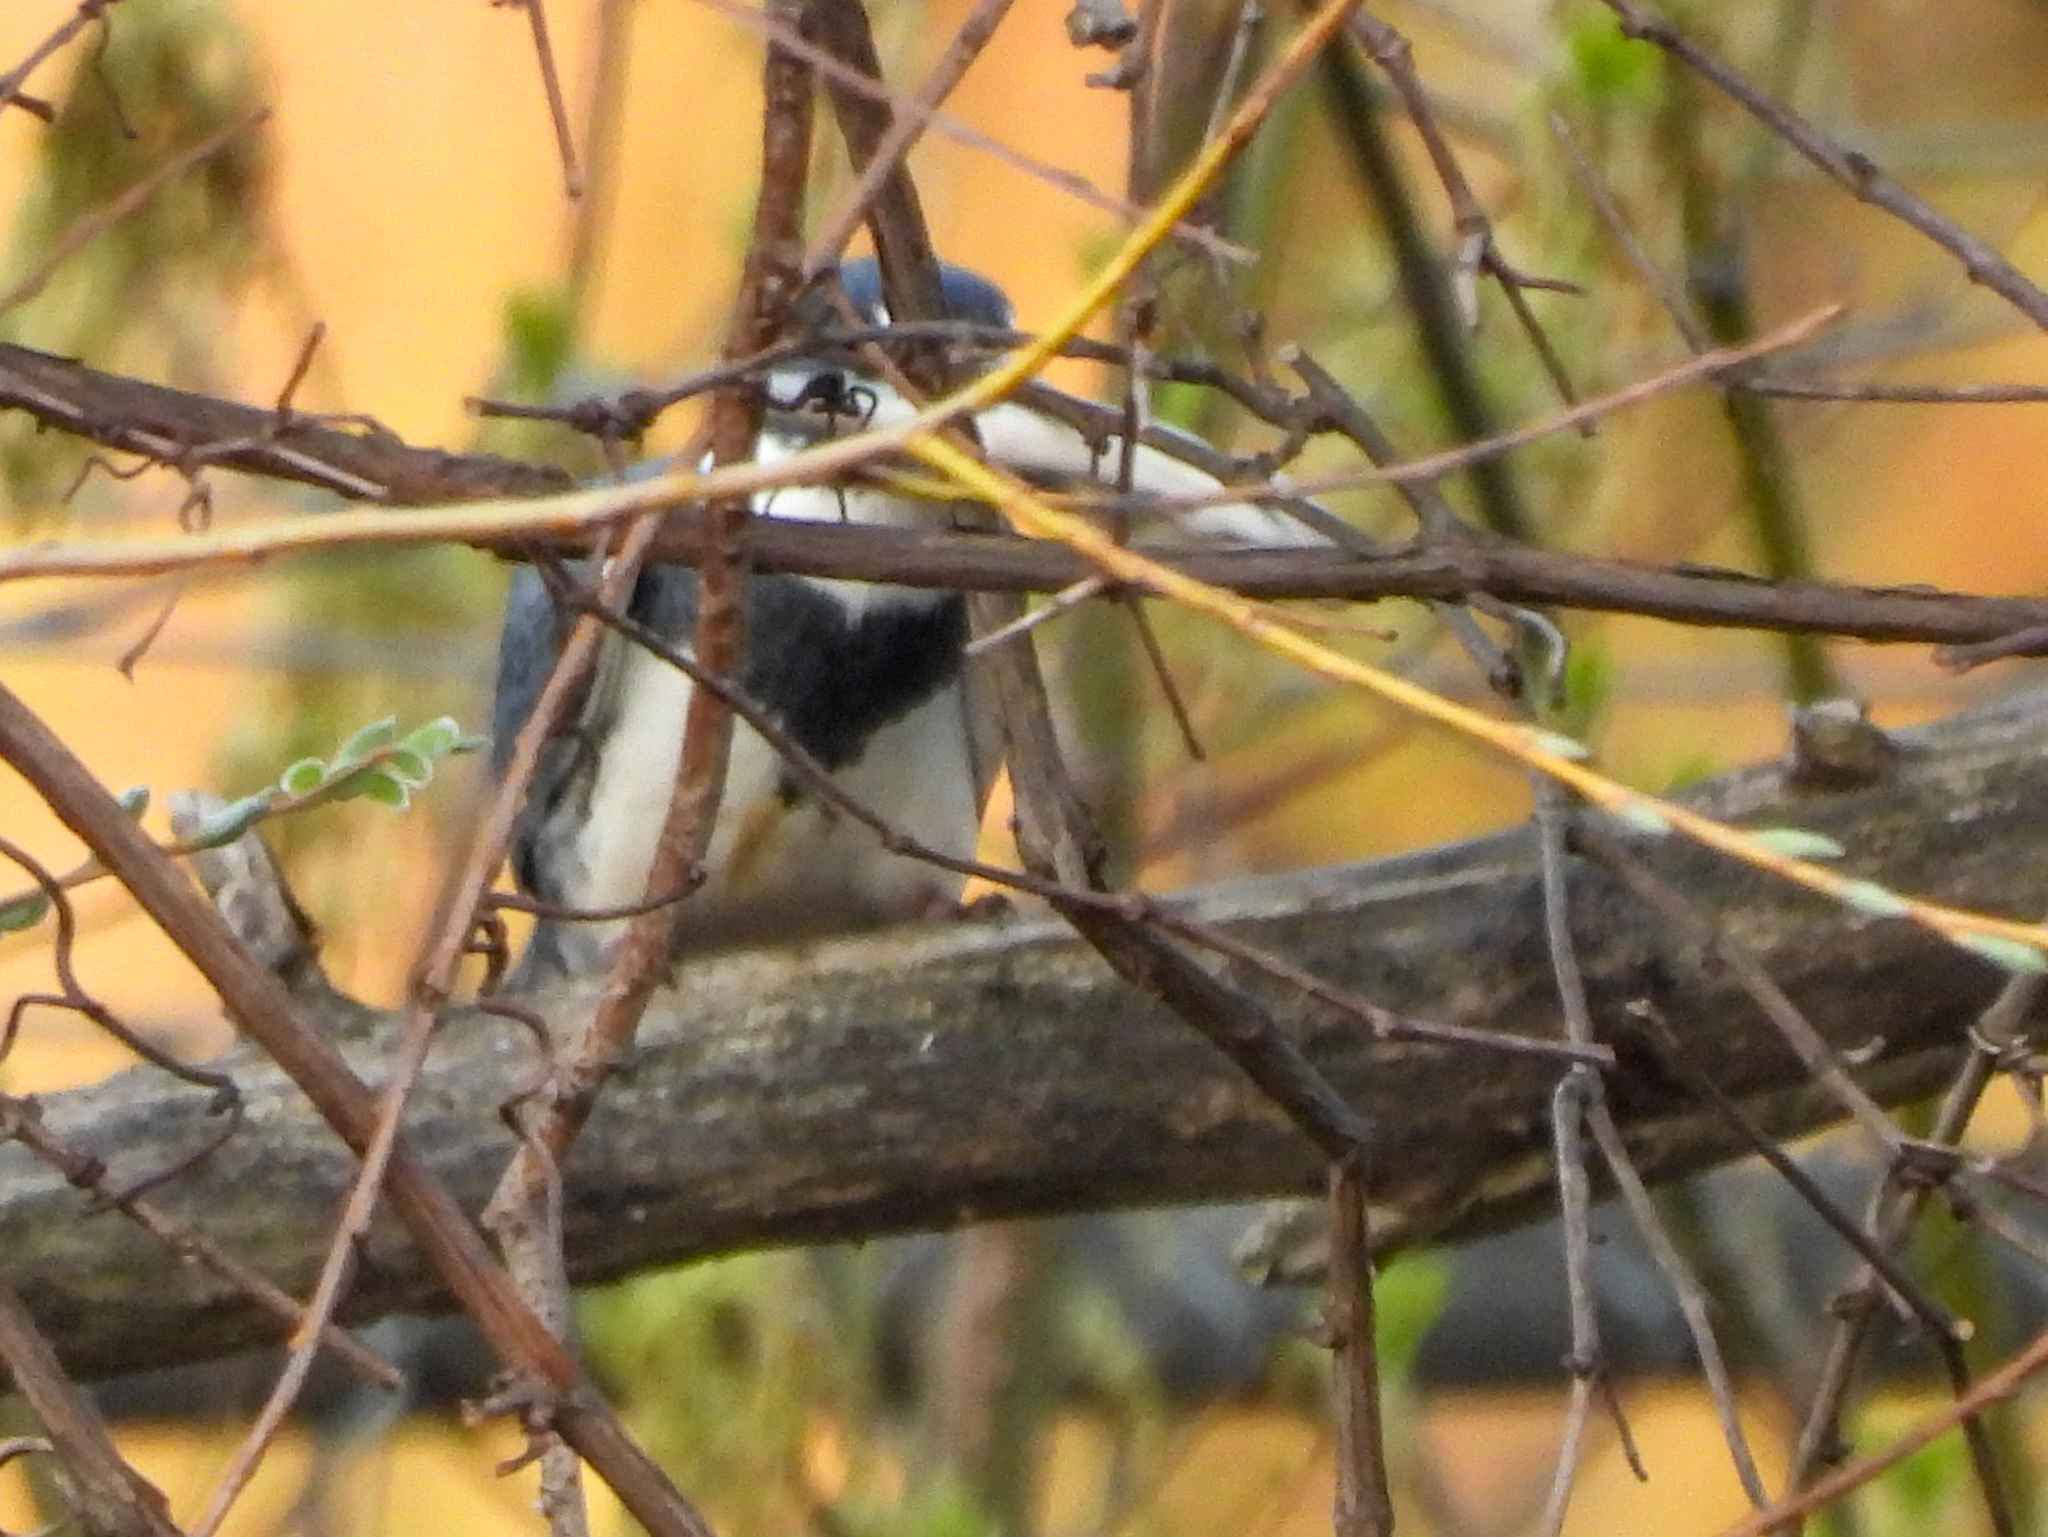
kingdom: Animalia
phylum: Chordata
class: Aves
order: Coraciiformes
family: Alcedinidae
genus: Megaceryle
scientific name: Megaceryle alcyon
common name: Belted kingfisher
